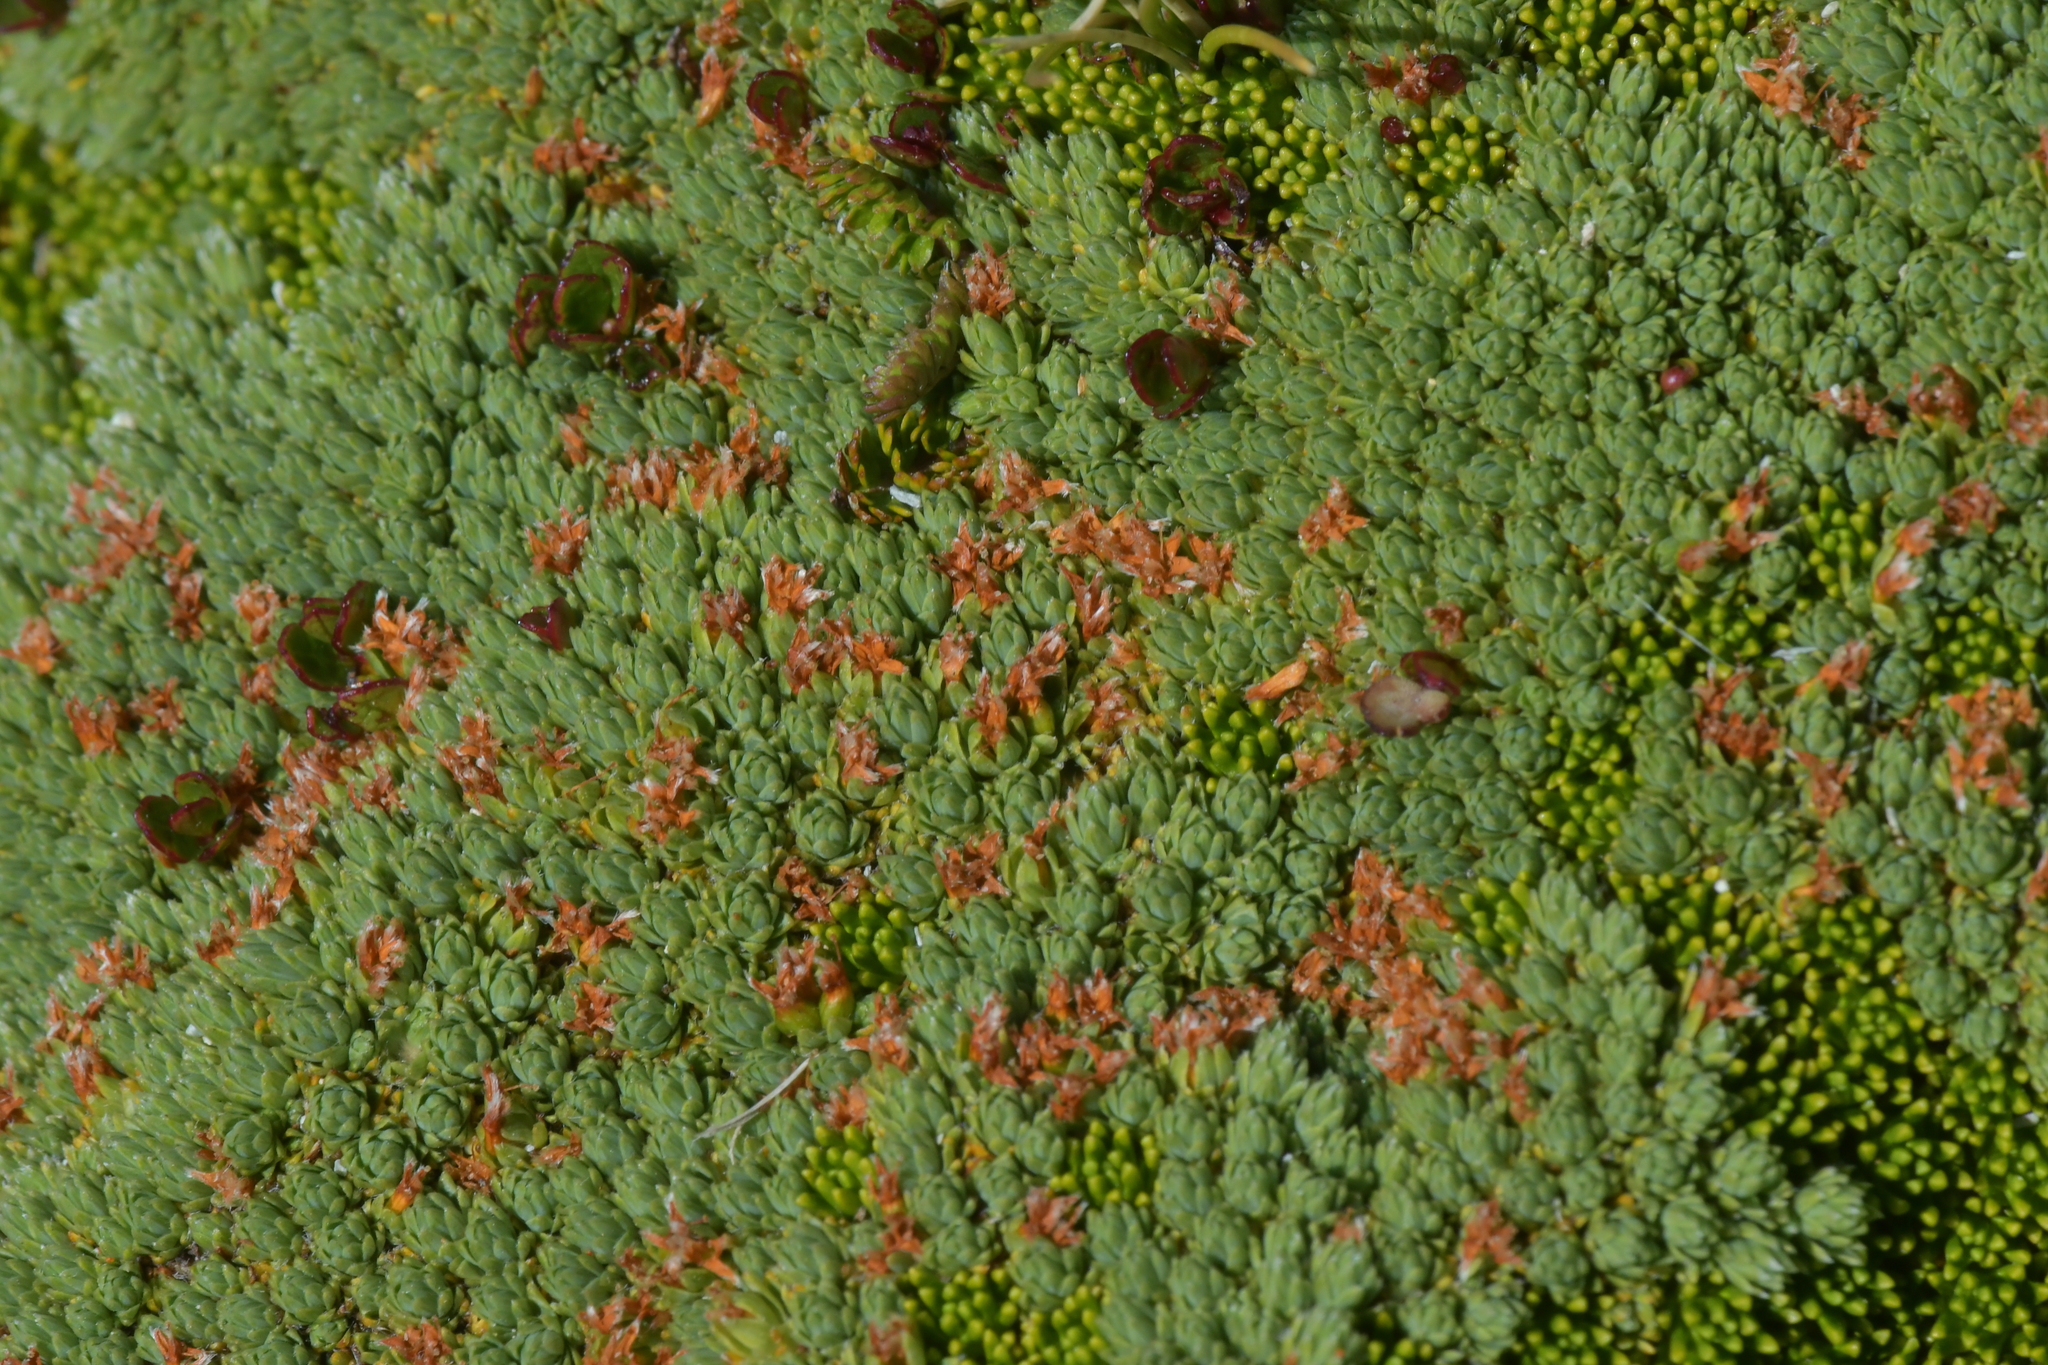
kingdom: Plantae
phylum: Tracheophyta
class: Magnoliopsida
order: Malvales
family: Thymelaeaceae
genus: Kelleria
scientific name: Kelleria croizatii
